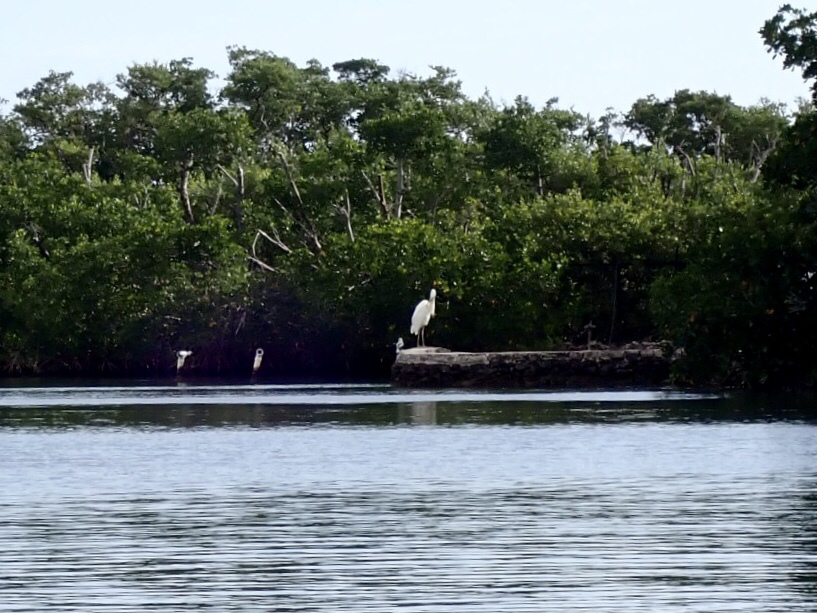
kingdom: Animalia
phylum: Chordata
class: Aves
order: Pelecaniformes
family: Ardeidae
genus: Ardea
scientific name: Ardea herodias
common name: Great blue heron
